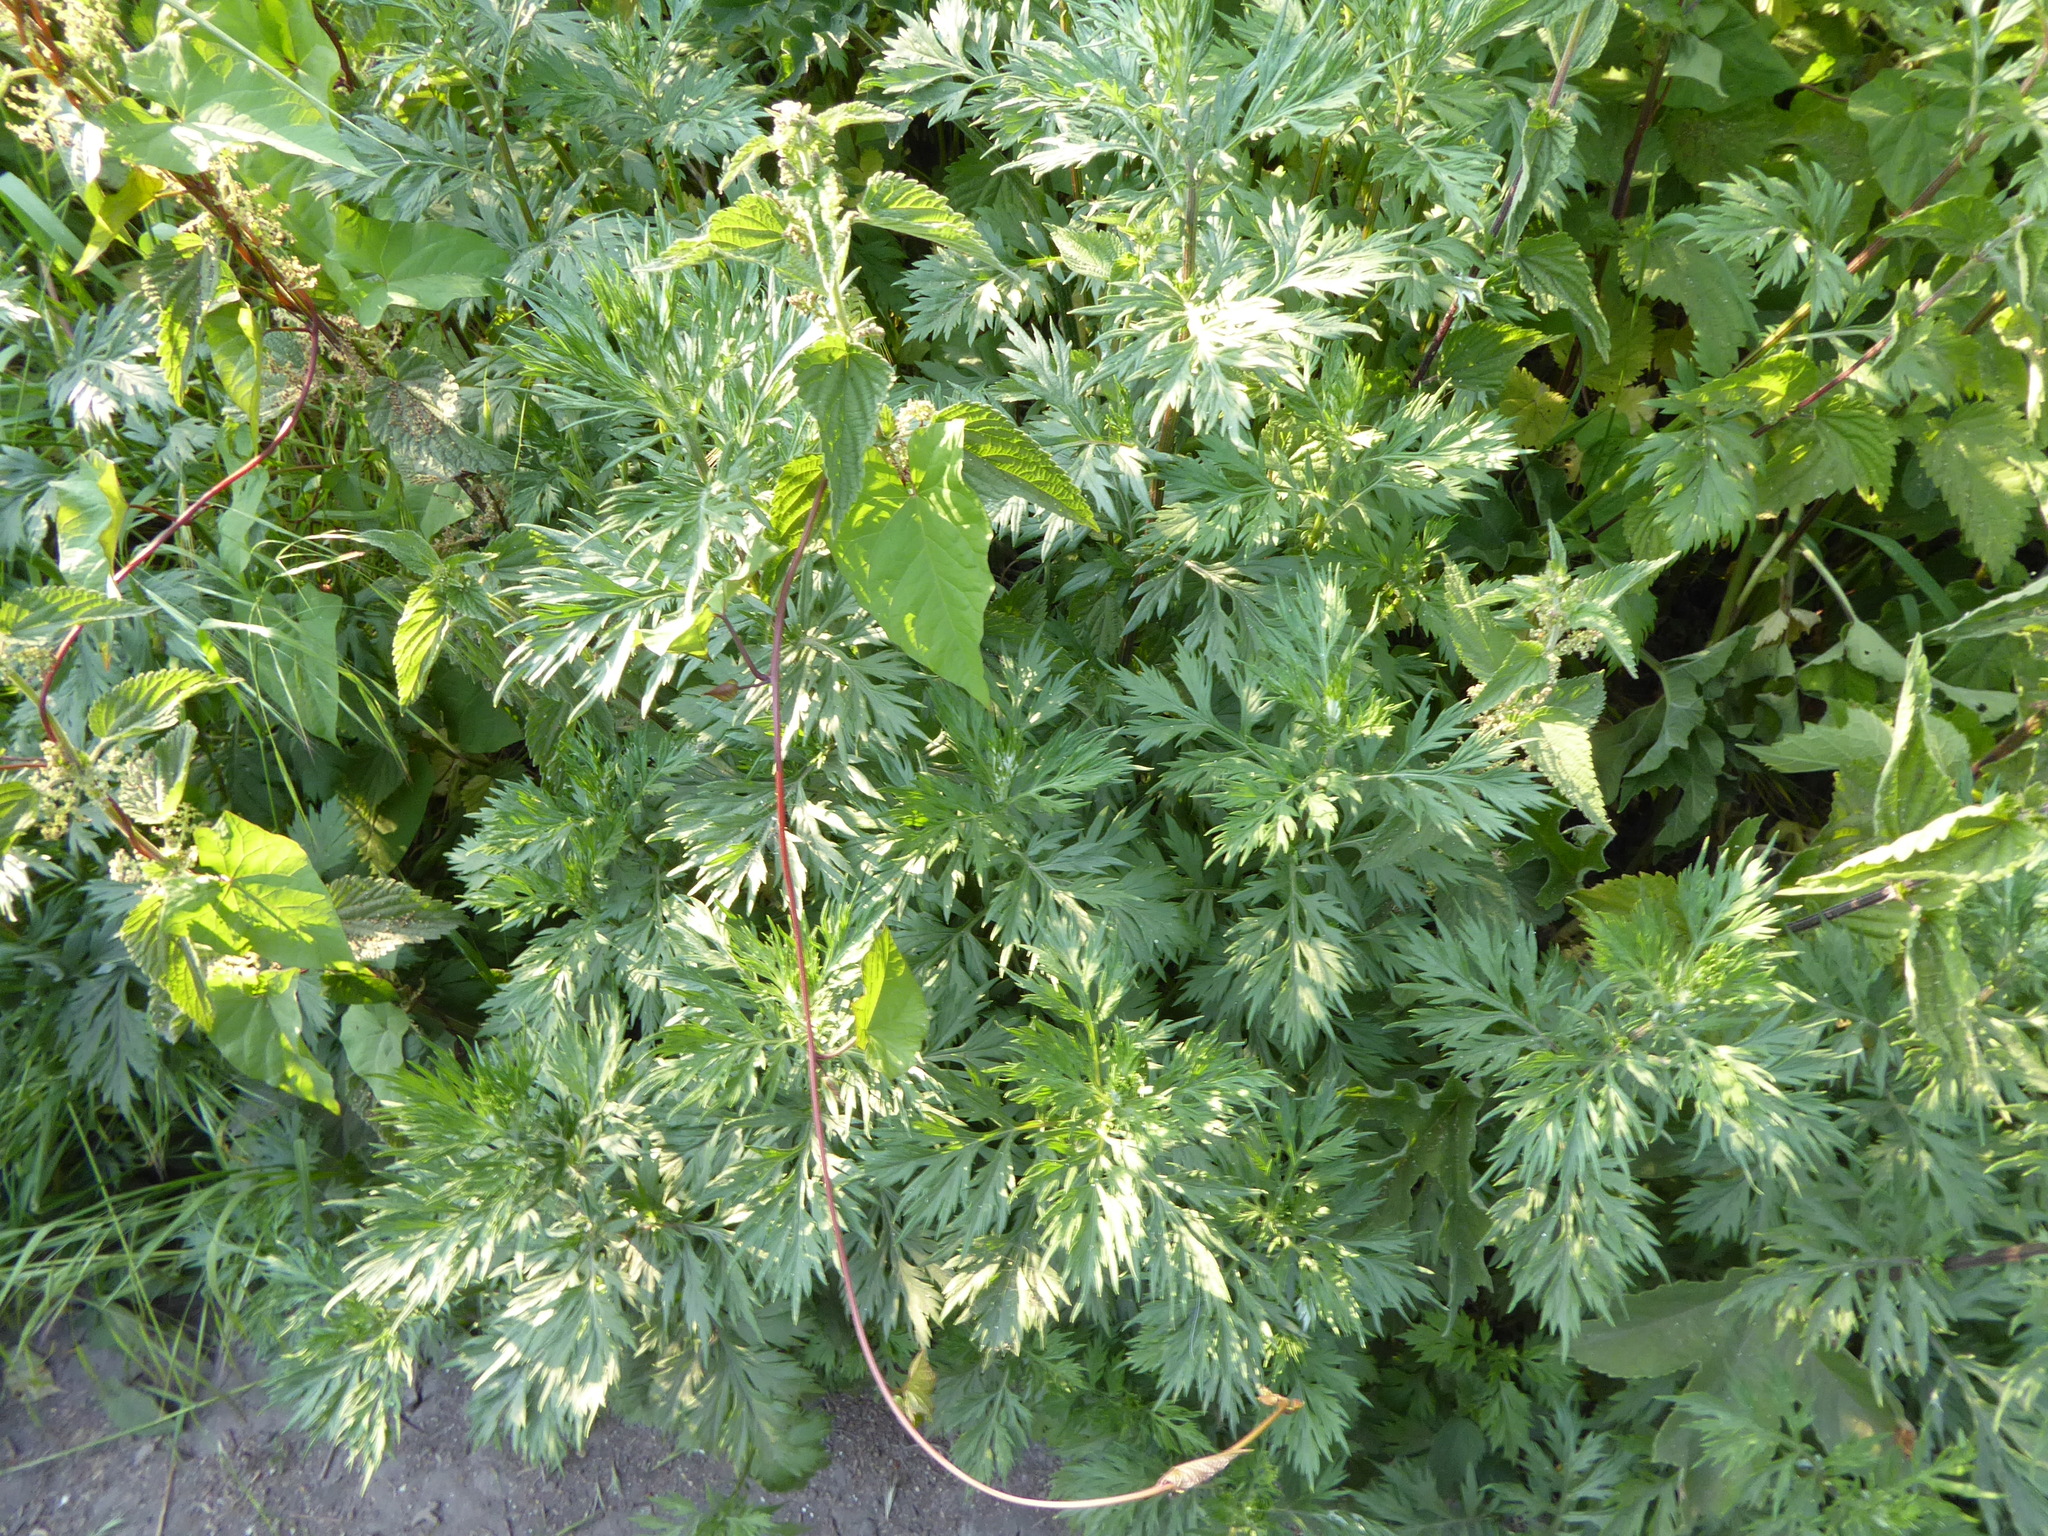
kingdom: Plantae
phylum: Tracheophyta
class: Magnoliopsida
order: Asterales
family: Asteraceae
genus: Artemisia
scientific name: Artemisia vulgaris
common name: Mugwort
